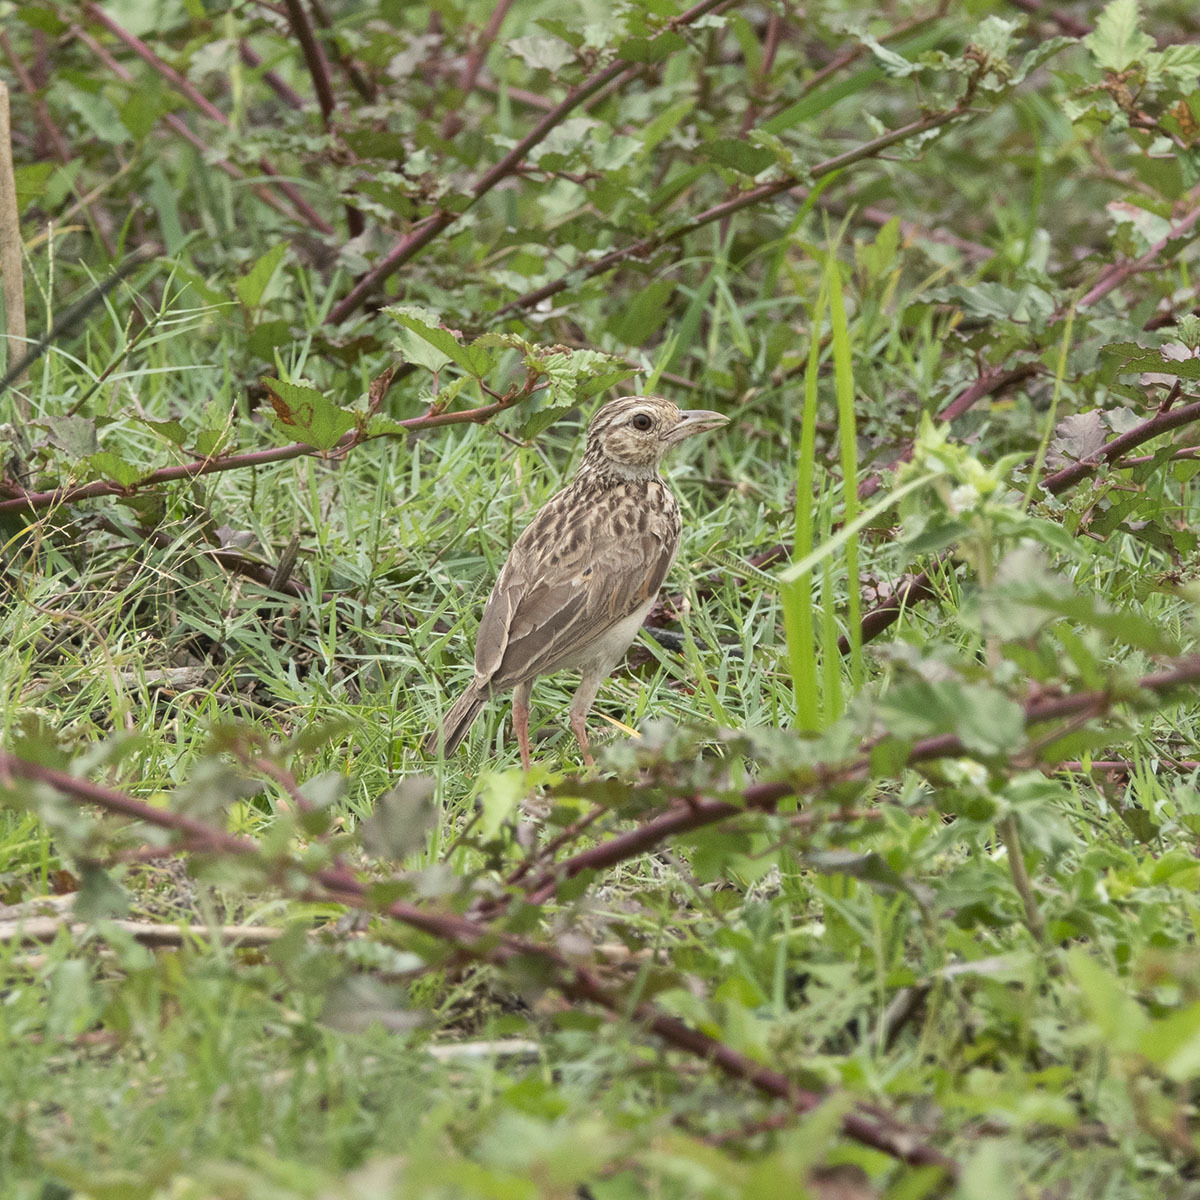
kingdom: Animalia
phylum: Chordata
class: Aves
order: Passeriformes
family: Alaudidae
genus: Mirafra
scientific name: Mirafra affinis
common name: Jerdon's bushlark
